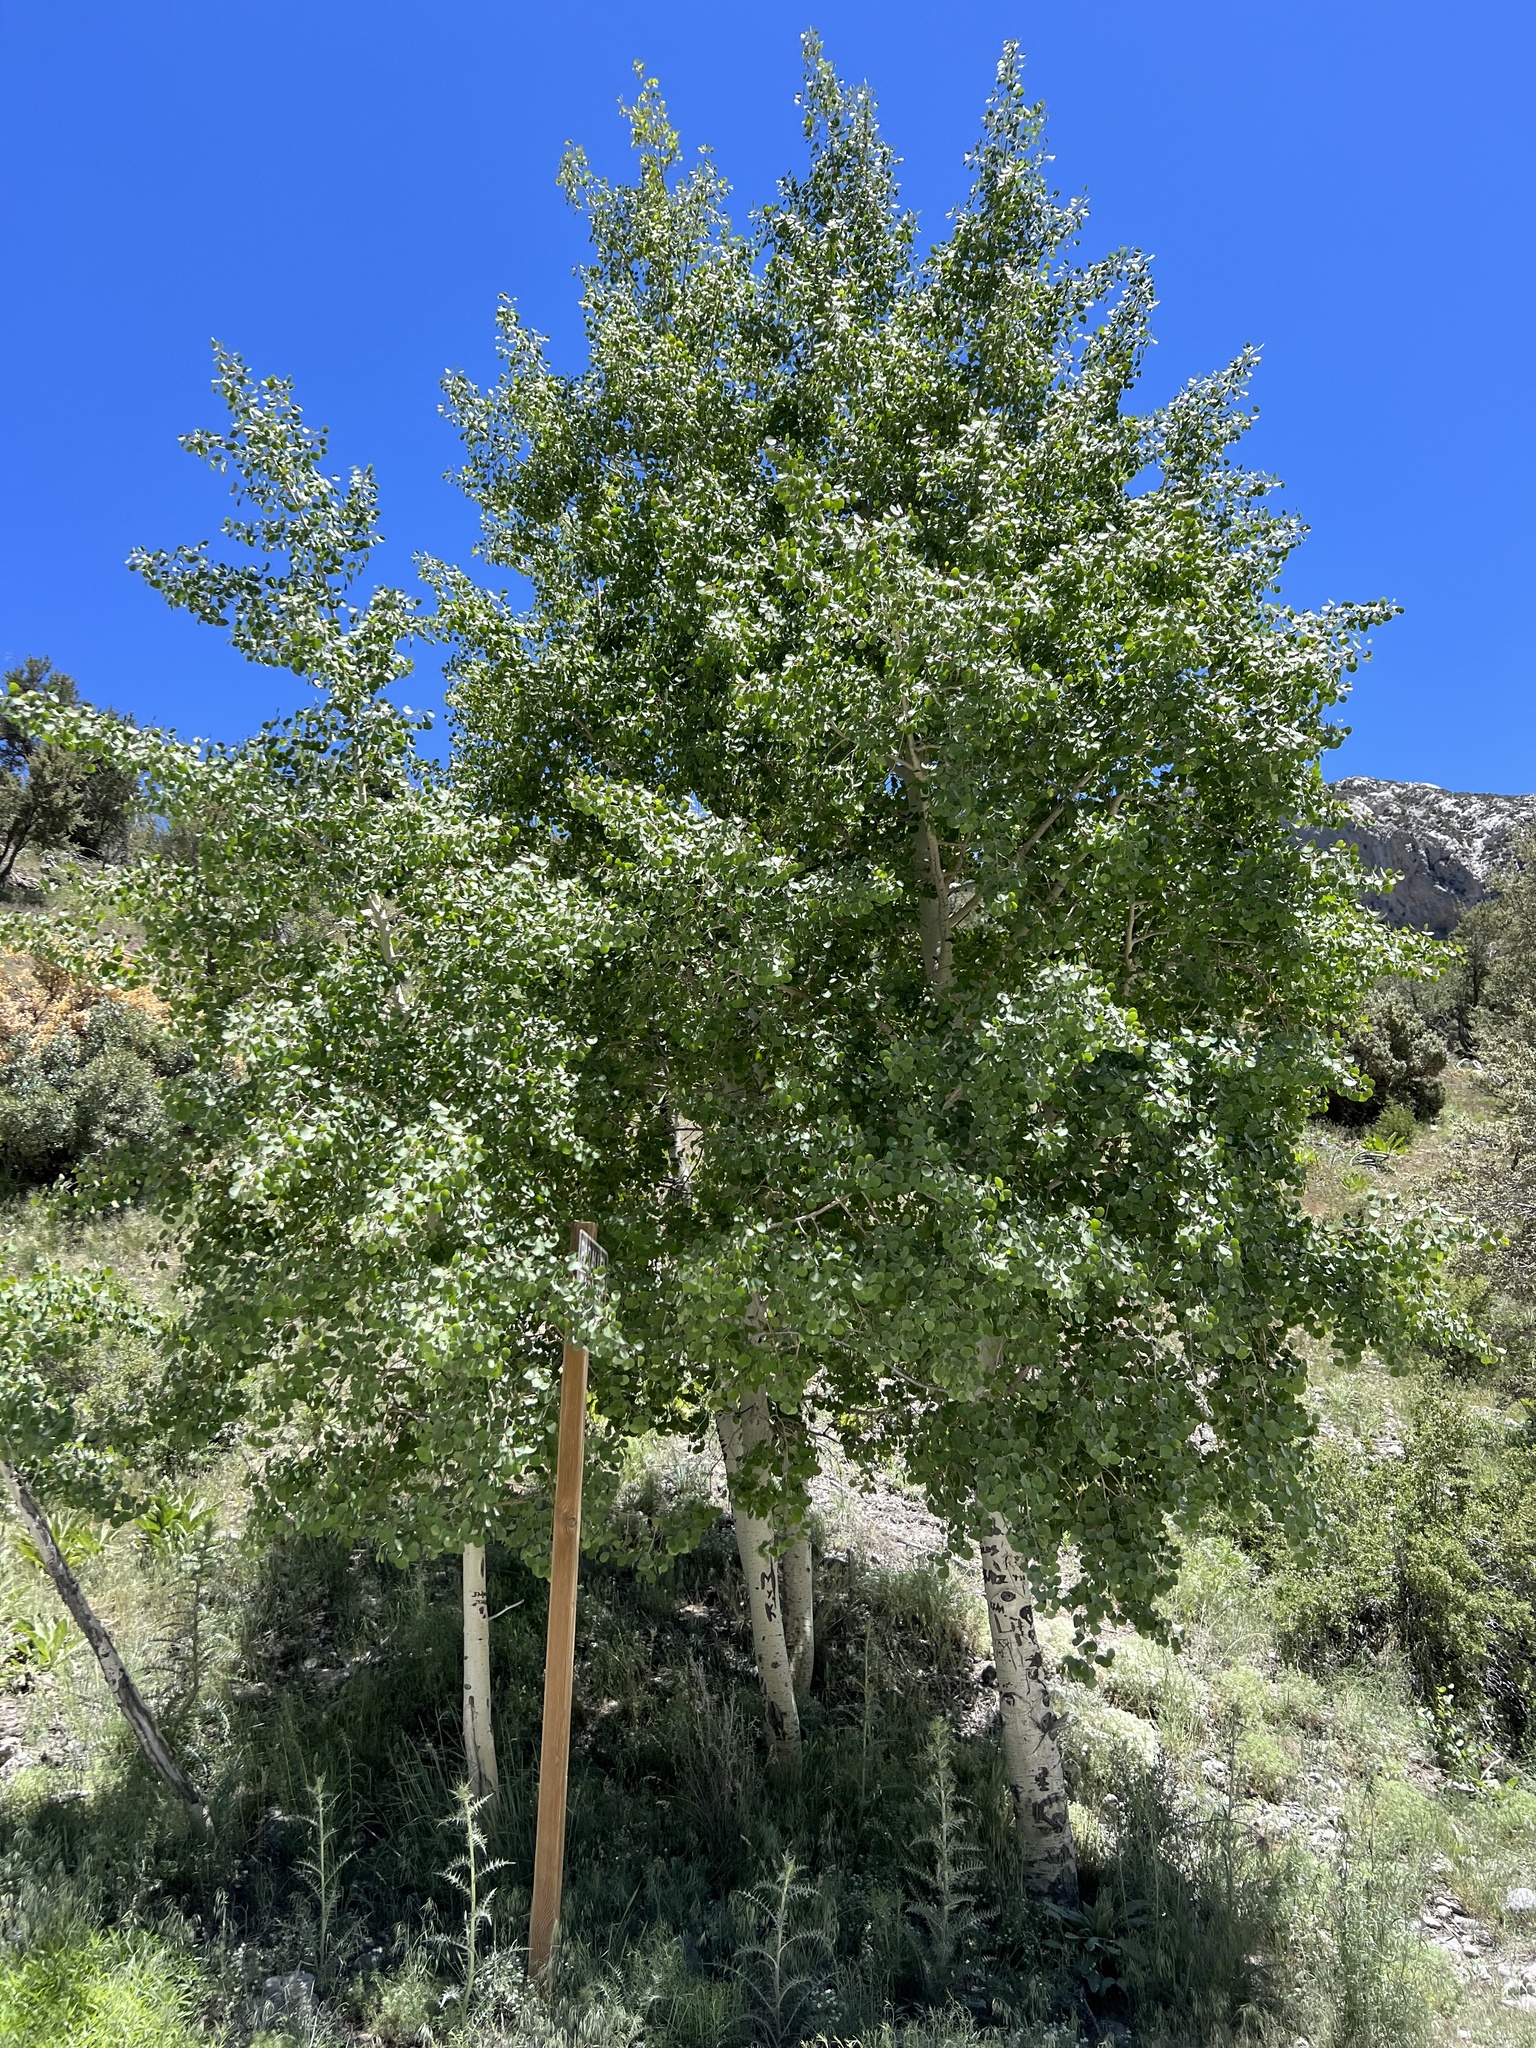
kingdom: Plantae
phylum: Tracheophyta
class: Magnoliopsida
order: Malpighiales
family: Salicaceae
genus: Populus
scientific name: Populus tremuloides
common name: Quaking aspen
